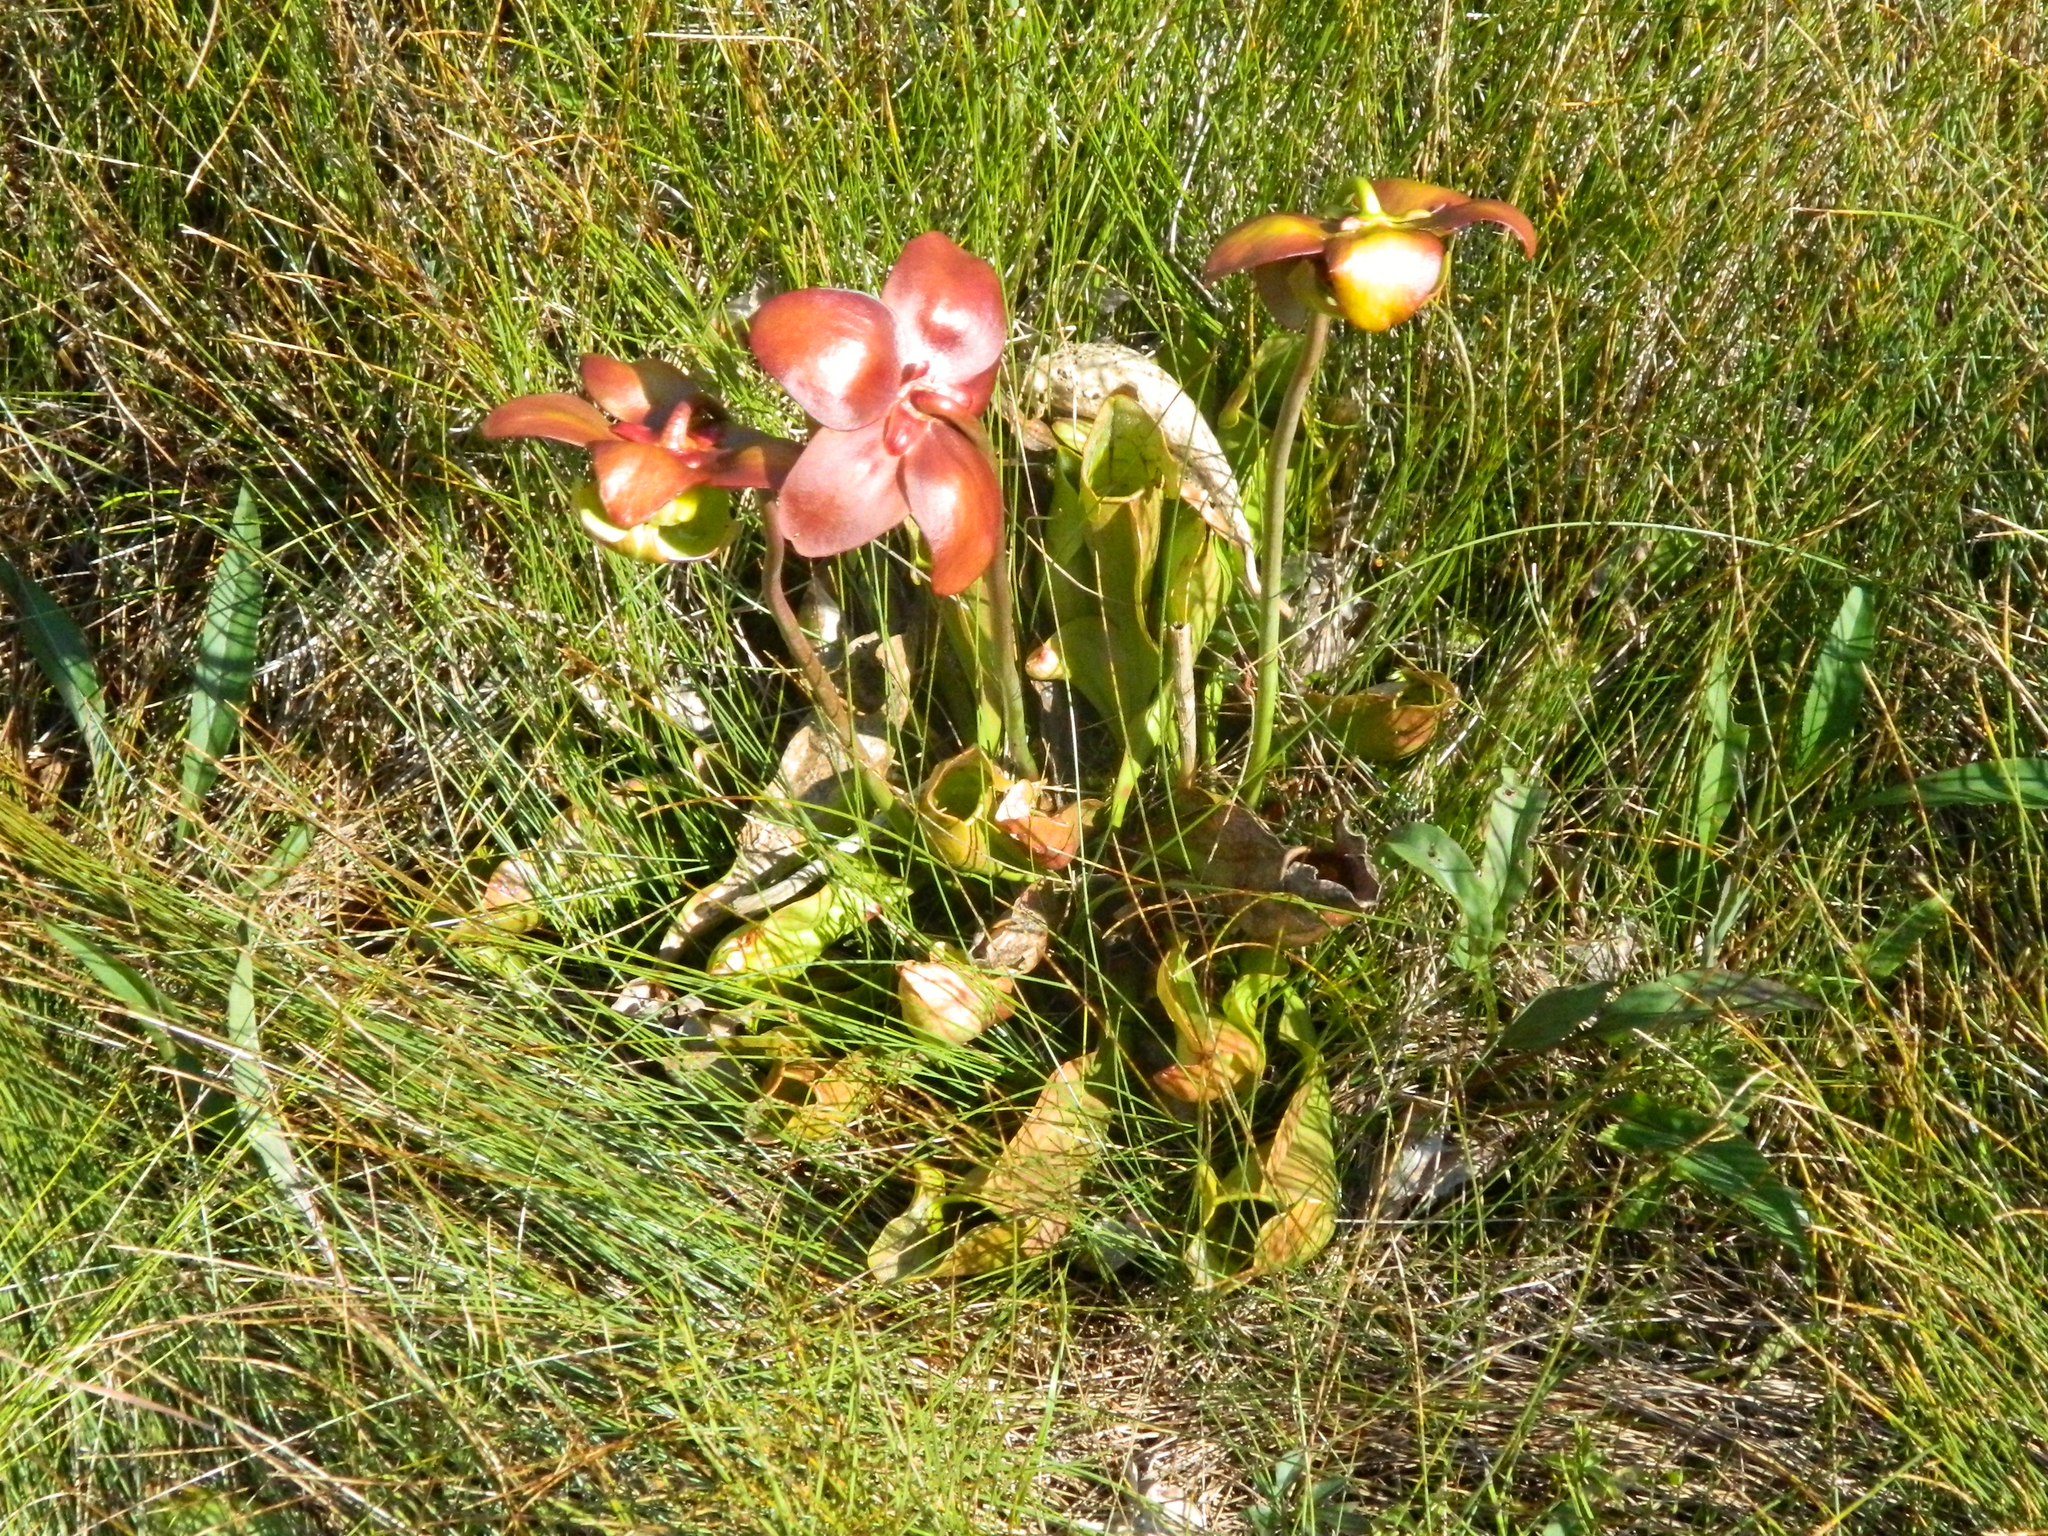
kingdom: Plantae
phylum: Tracheophyta
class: Magnoliopsida
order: Ericales
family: Sarraceniaceae
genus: Sarracenia
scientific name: Sarracenia purpurea
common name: Pitcherplant
